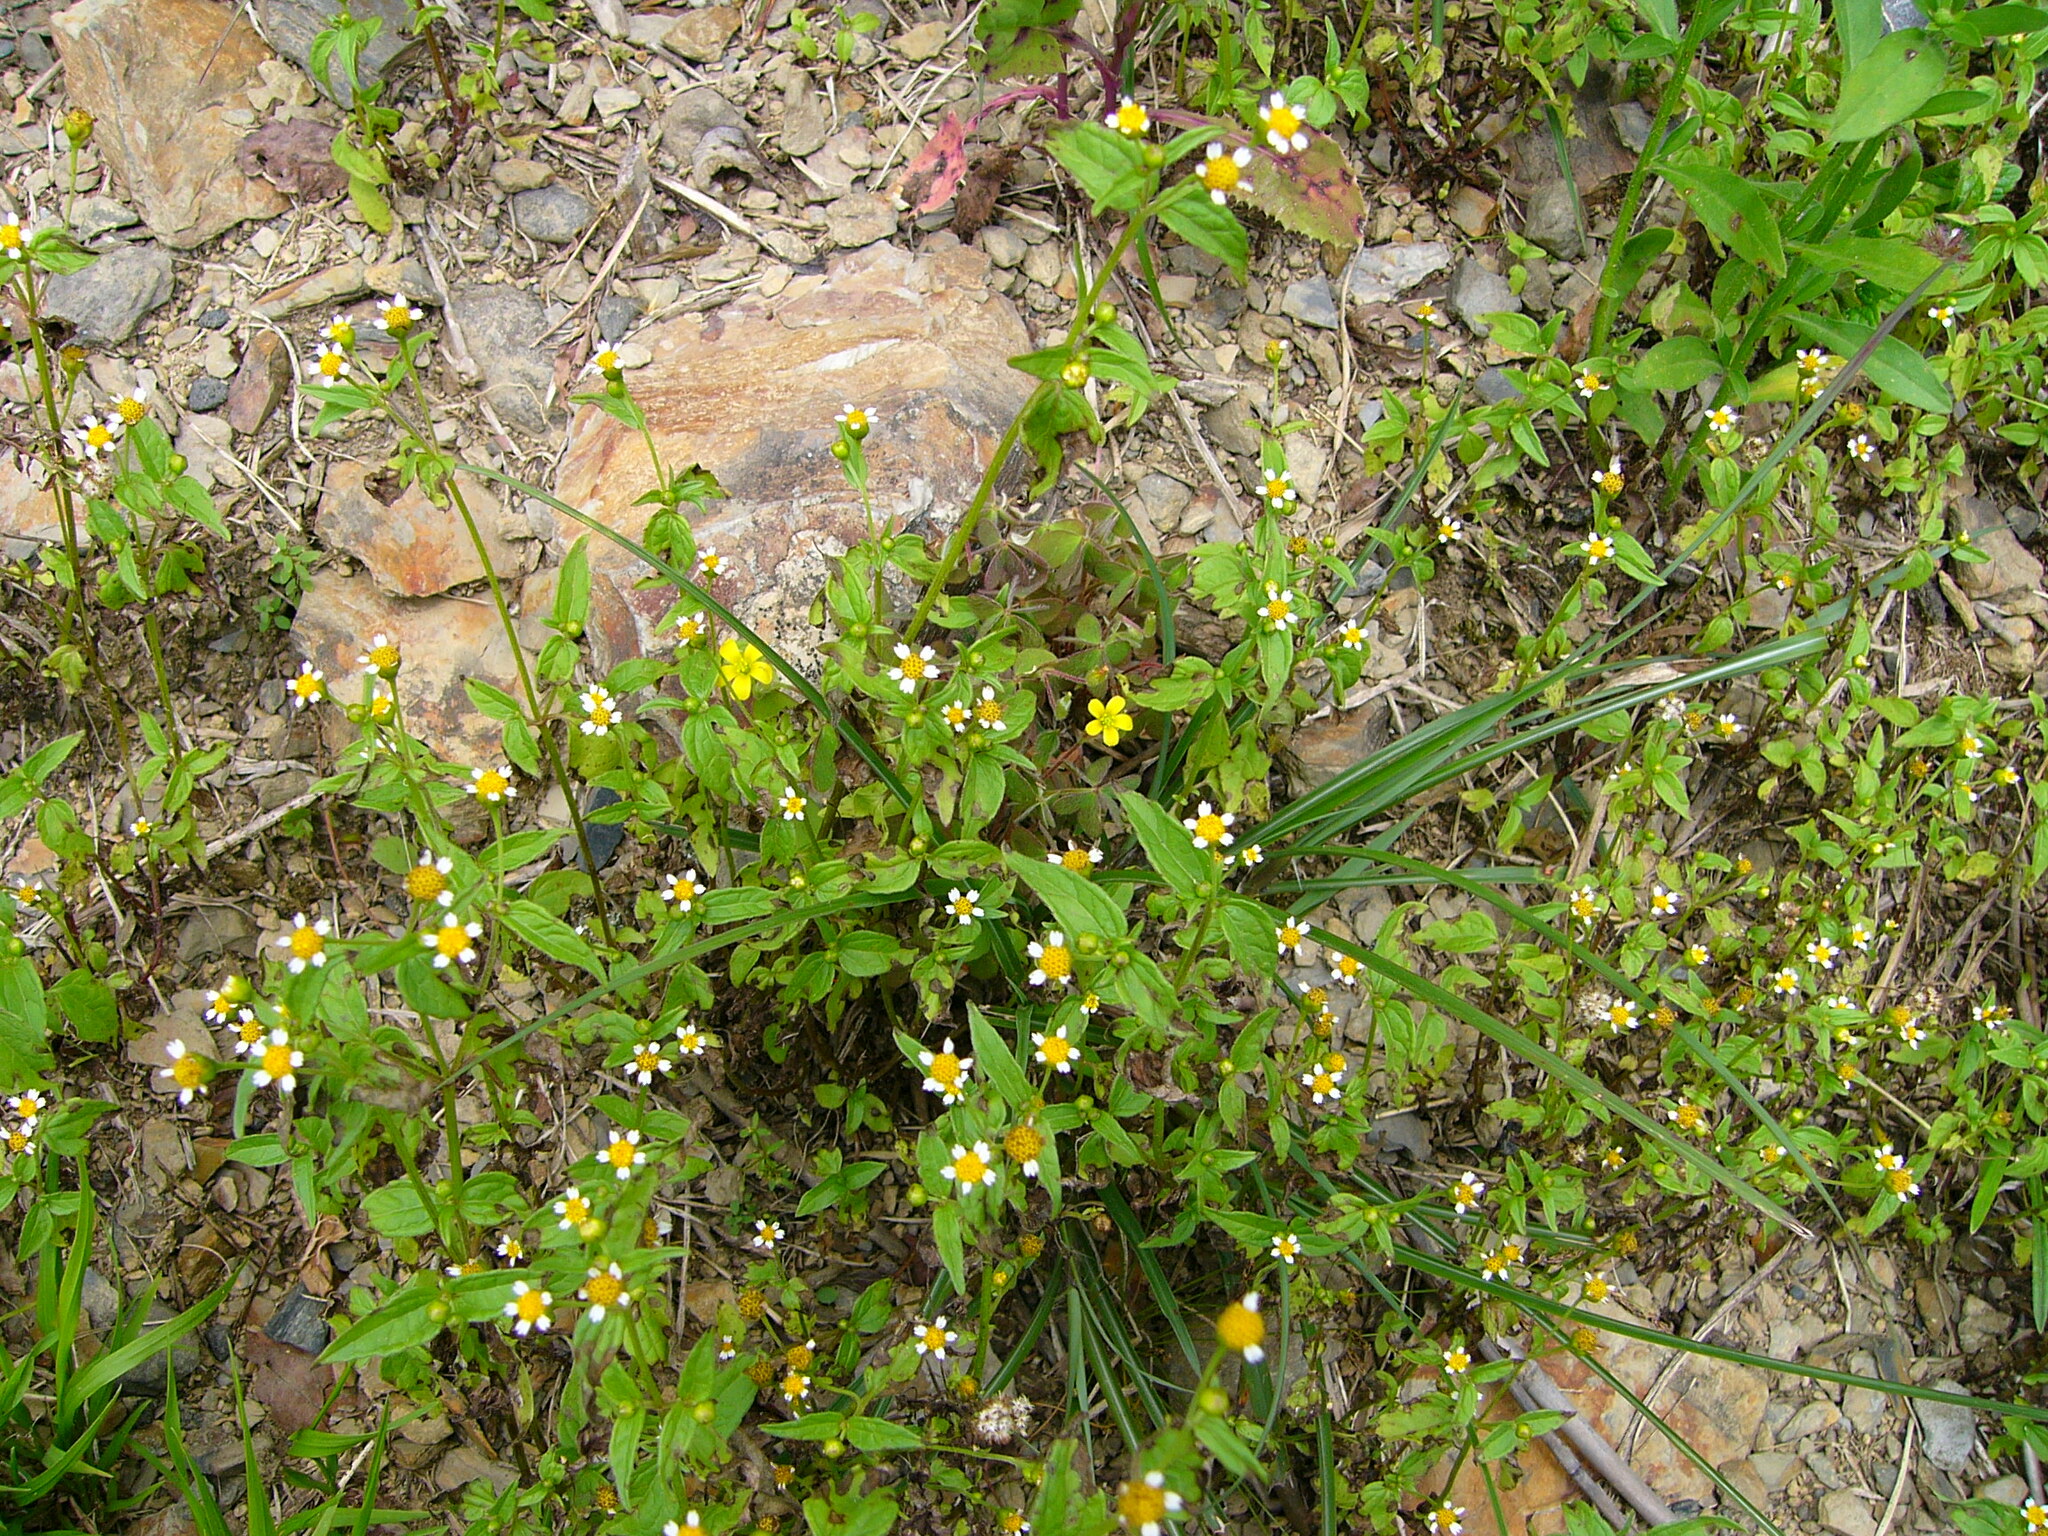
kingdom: Plantae
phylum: Tracheophyta
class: Magnoliopsida
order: Asterales
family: Asteraceae
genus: Galinsoga
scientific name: Galinsoga quadriradiata
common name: Shaggy soldier
